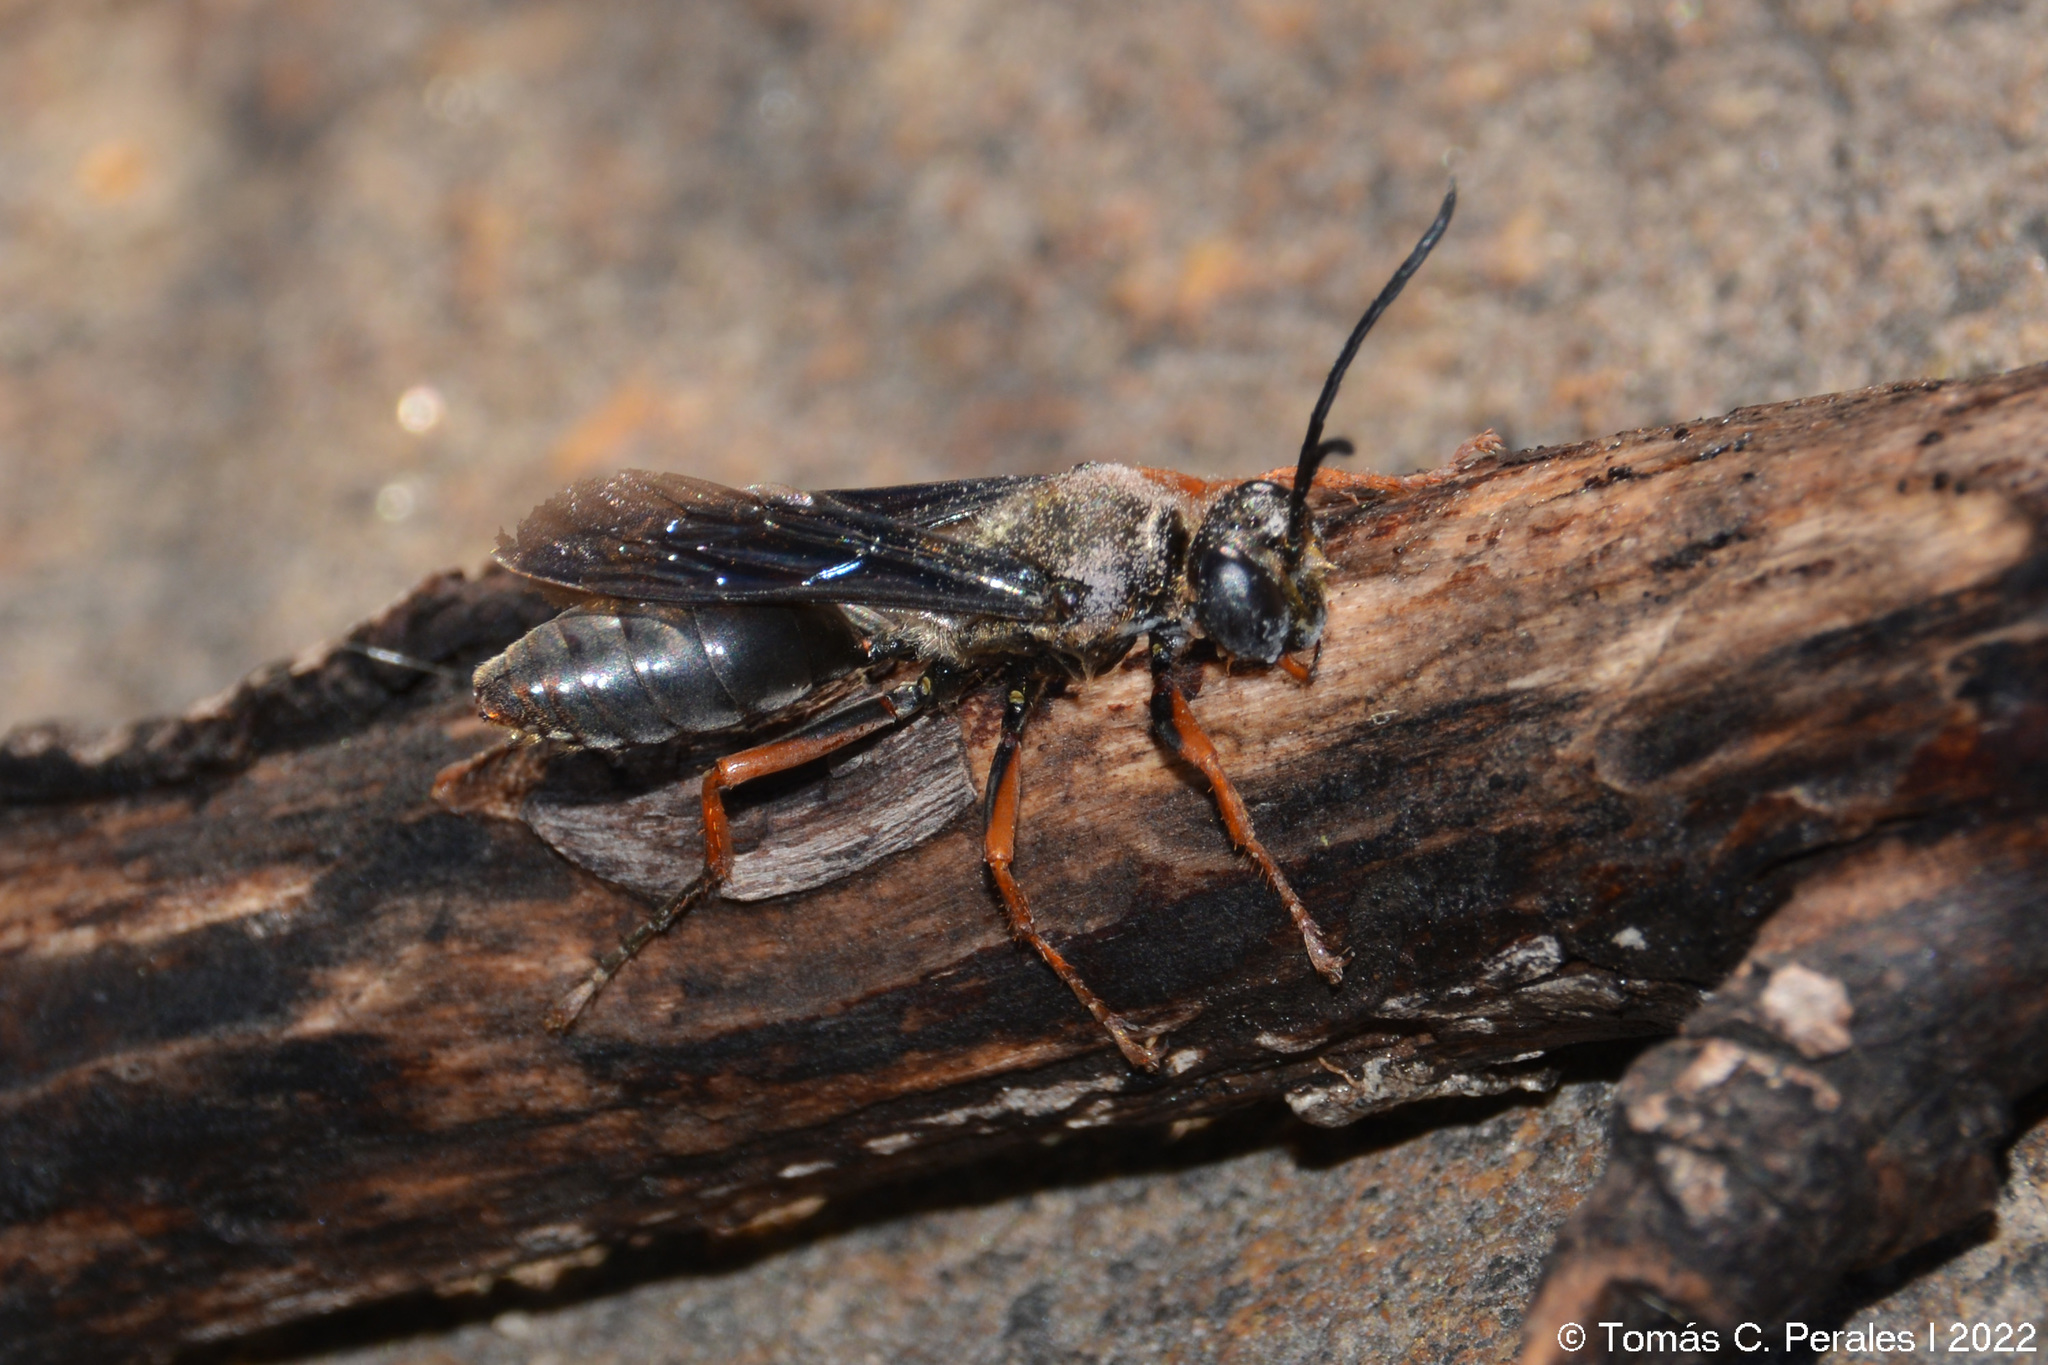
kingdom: Animalia
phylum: Arthropoda
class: Insecta
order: Hymenoptera
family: Sphecidae
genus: Sphex
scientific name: Sphex opacus
